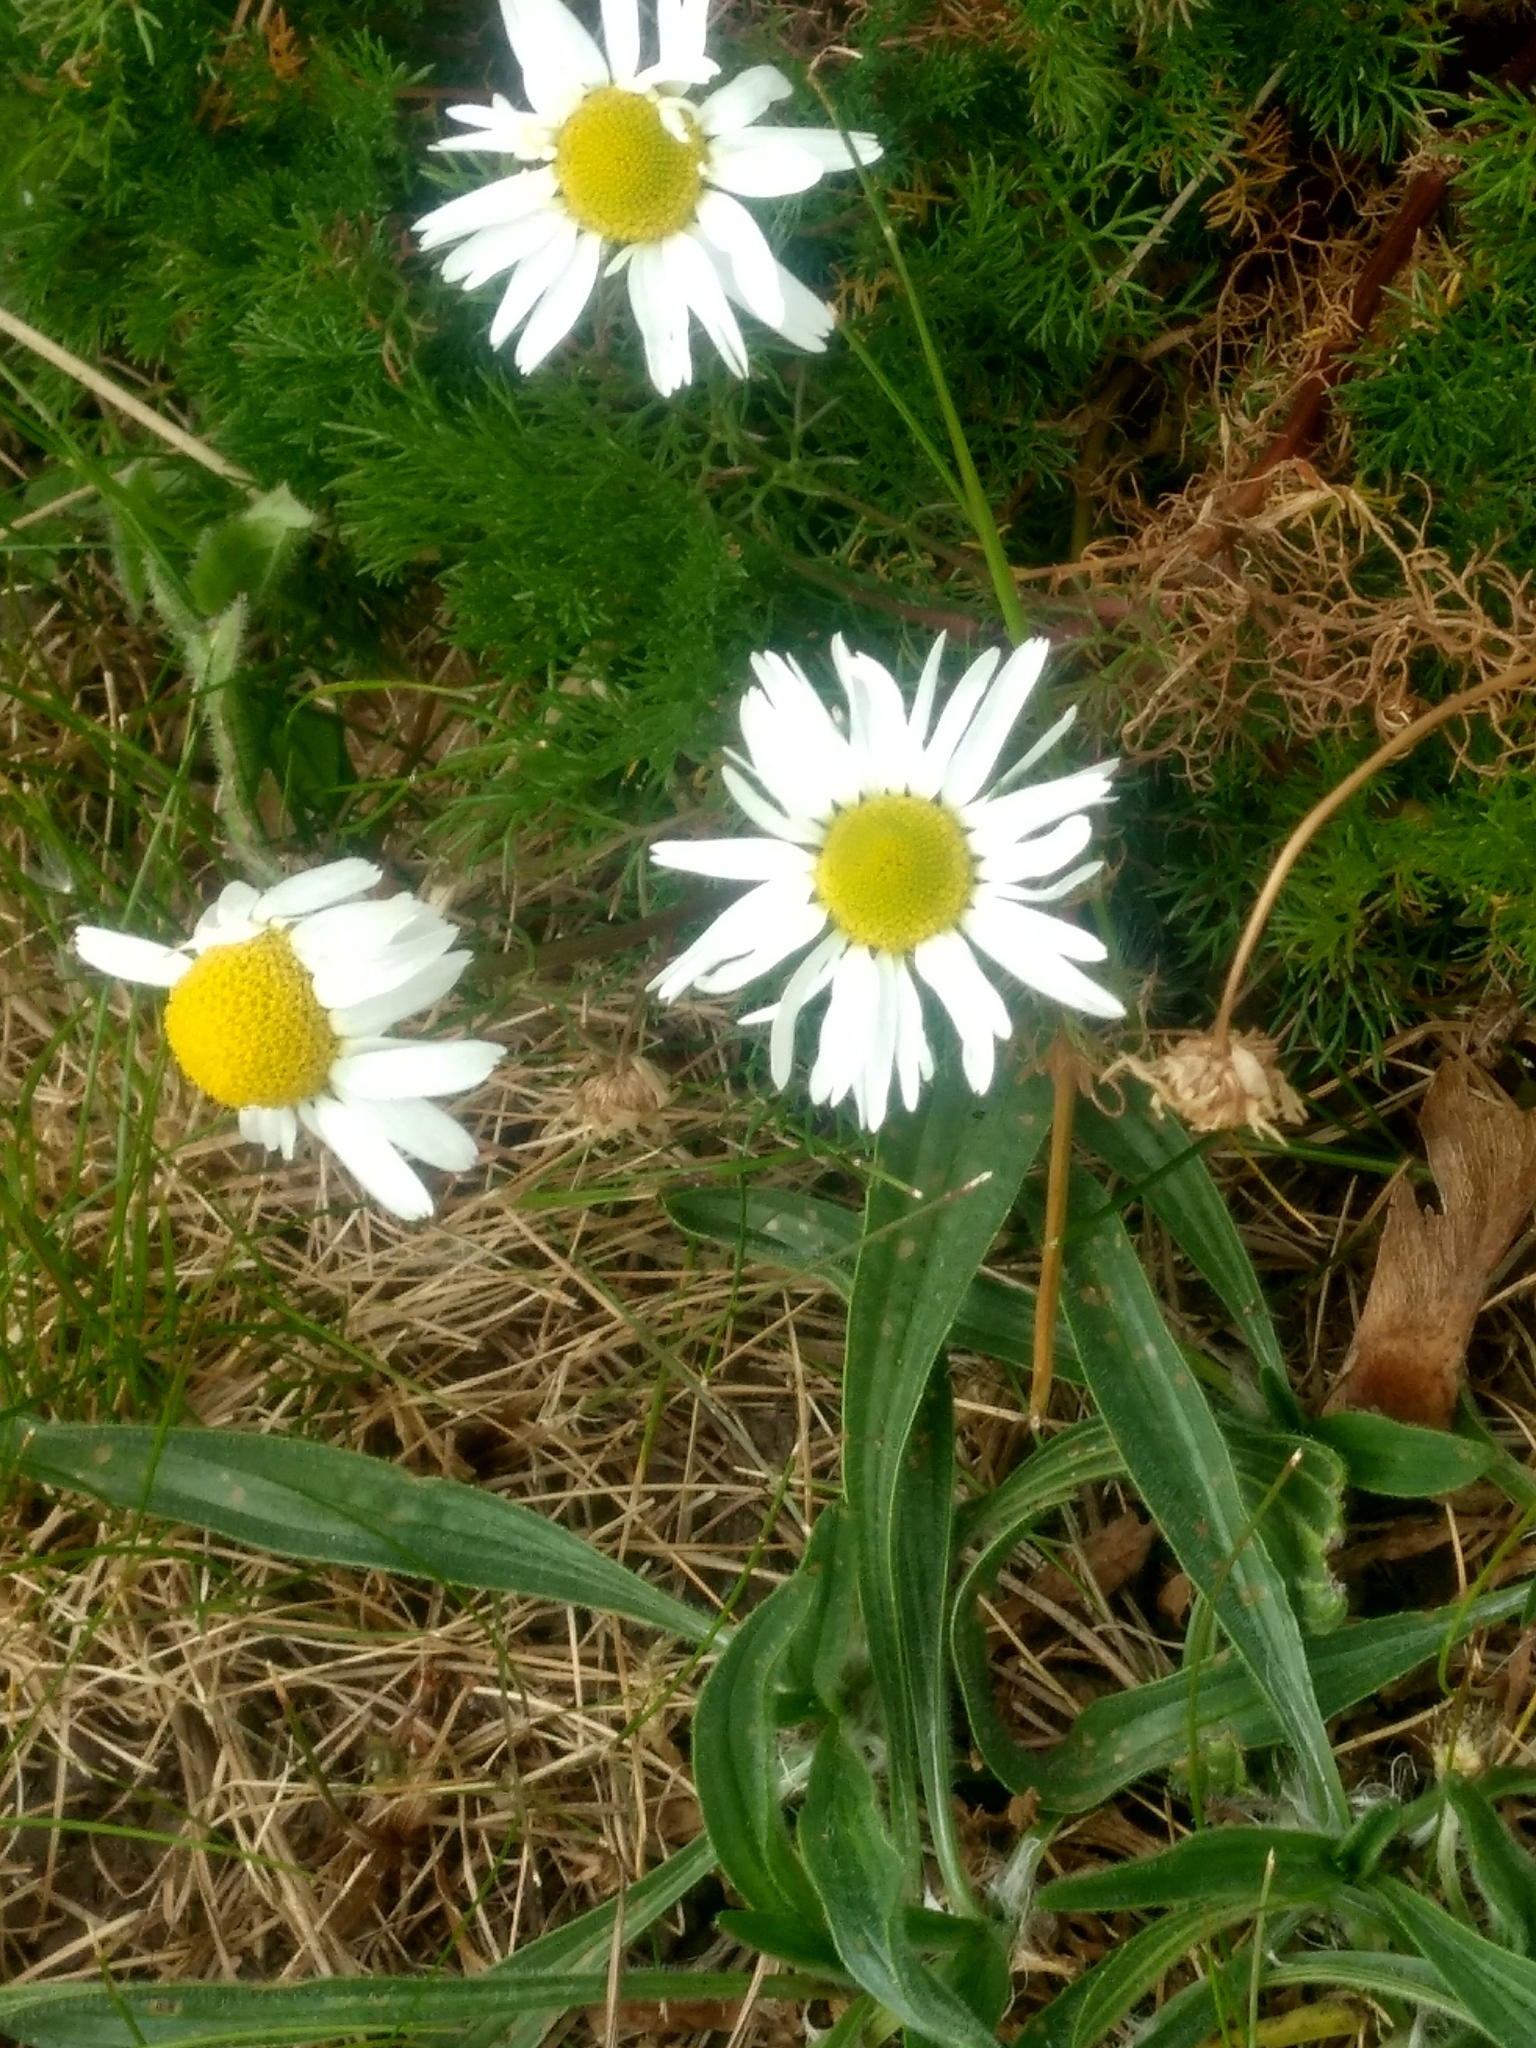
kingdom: Plantae
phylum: Tracheophyta
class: Magnoliopsida
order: Asterales
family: Asteraceae
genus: Matricaria
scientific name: Matricaria chamomilla
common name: Scented mayweed
